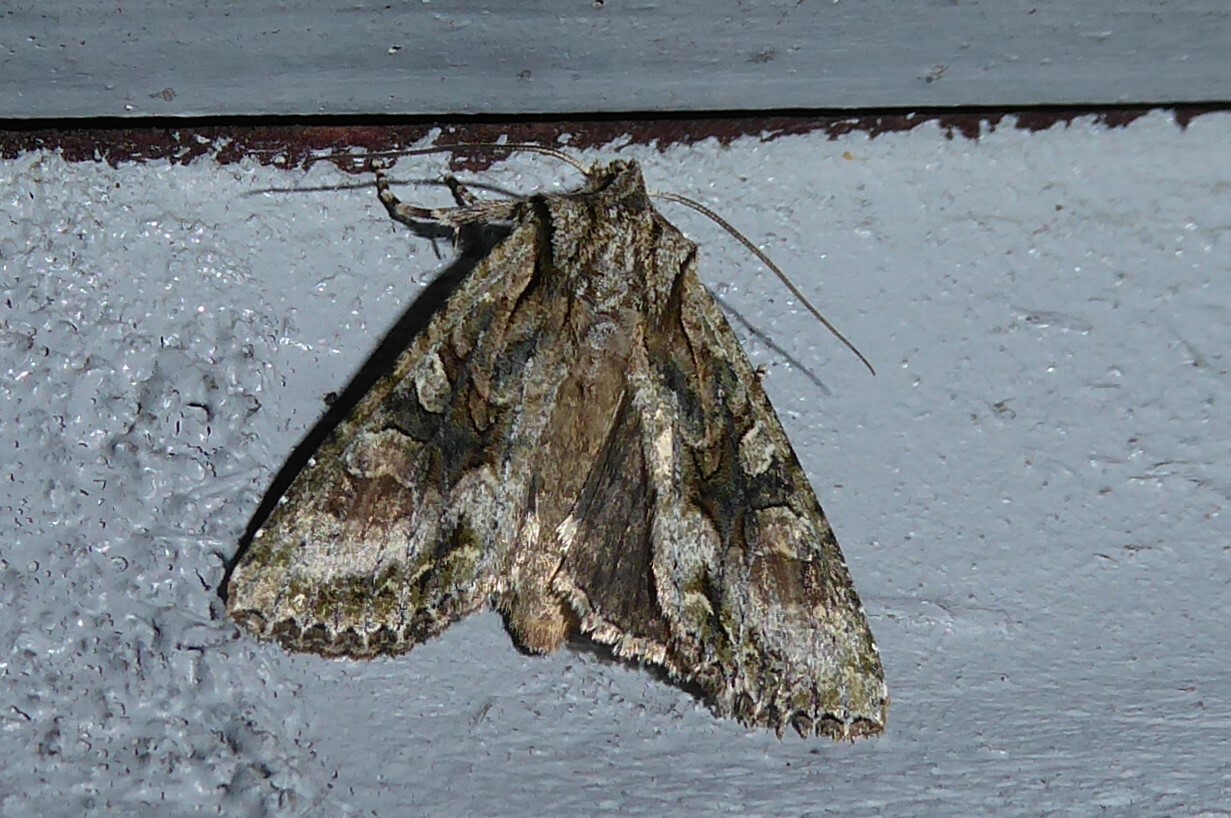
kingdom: Animalia
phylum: Arthropoda
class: Insecta
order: Lepidoptera
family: Noctuidae
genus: Ichneutica
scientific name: Ichneutica mutans
